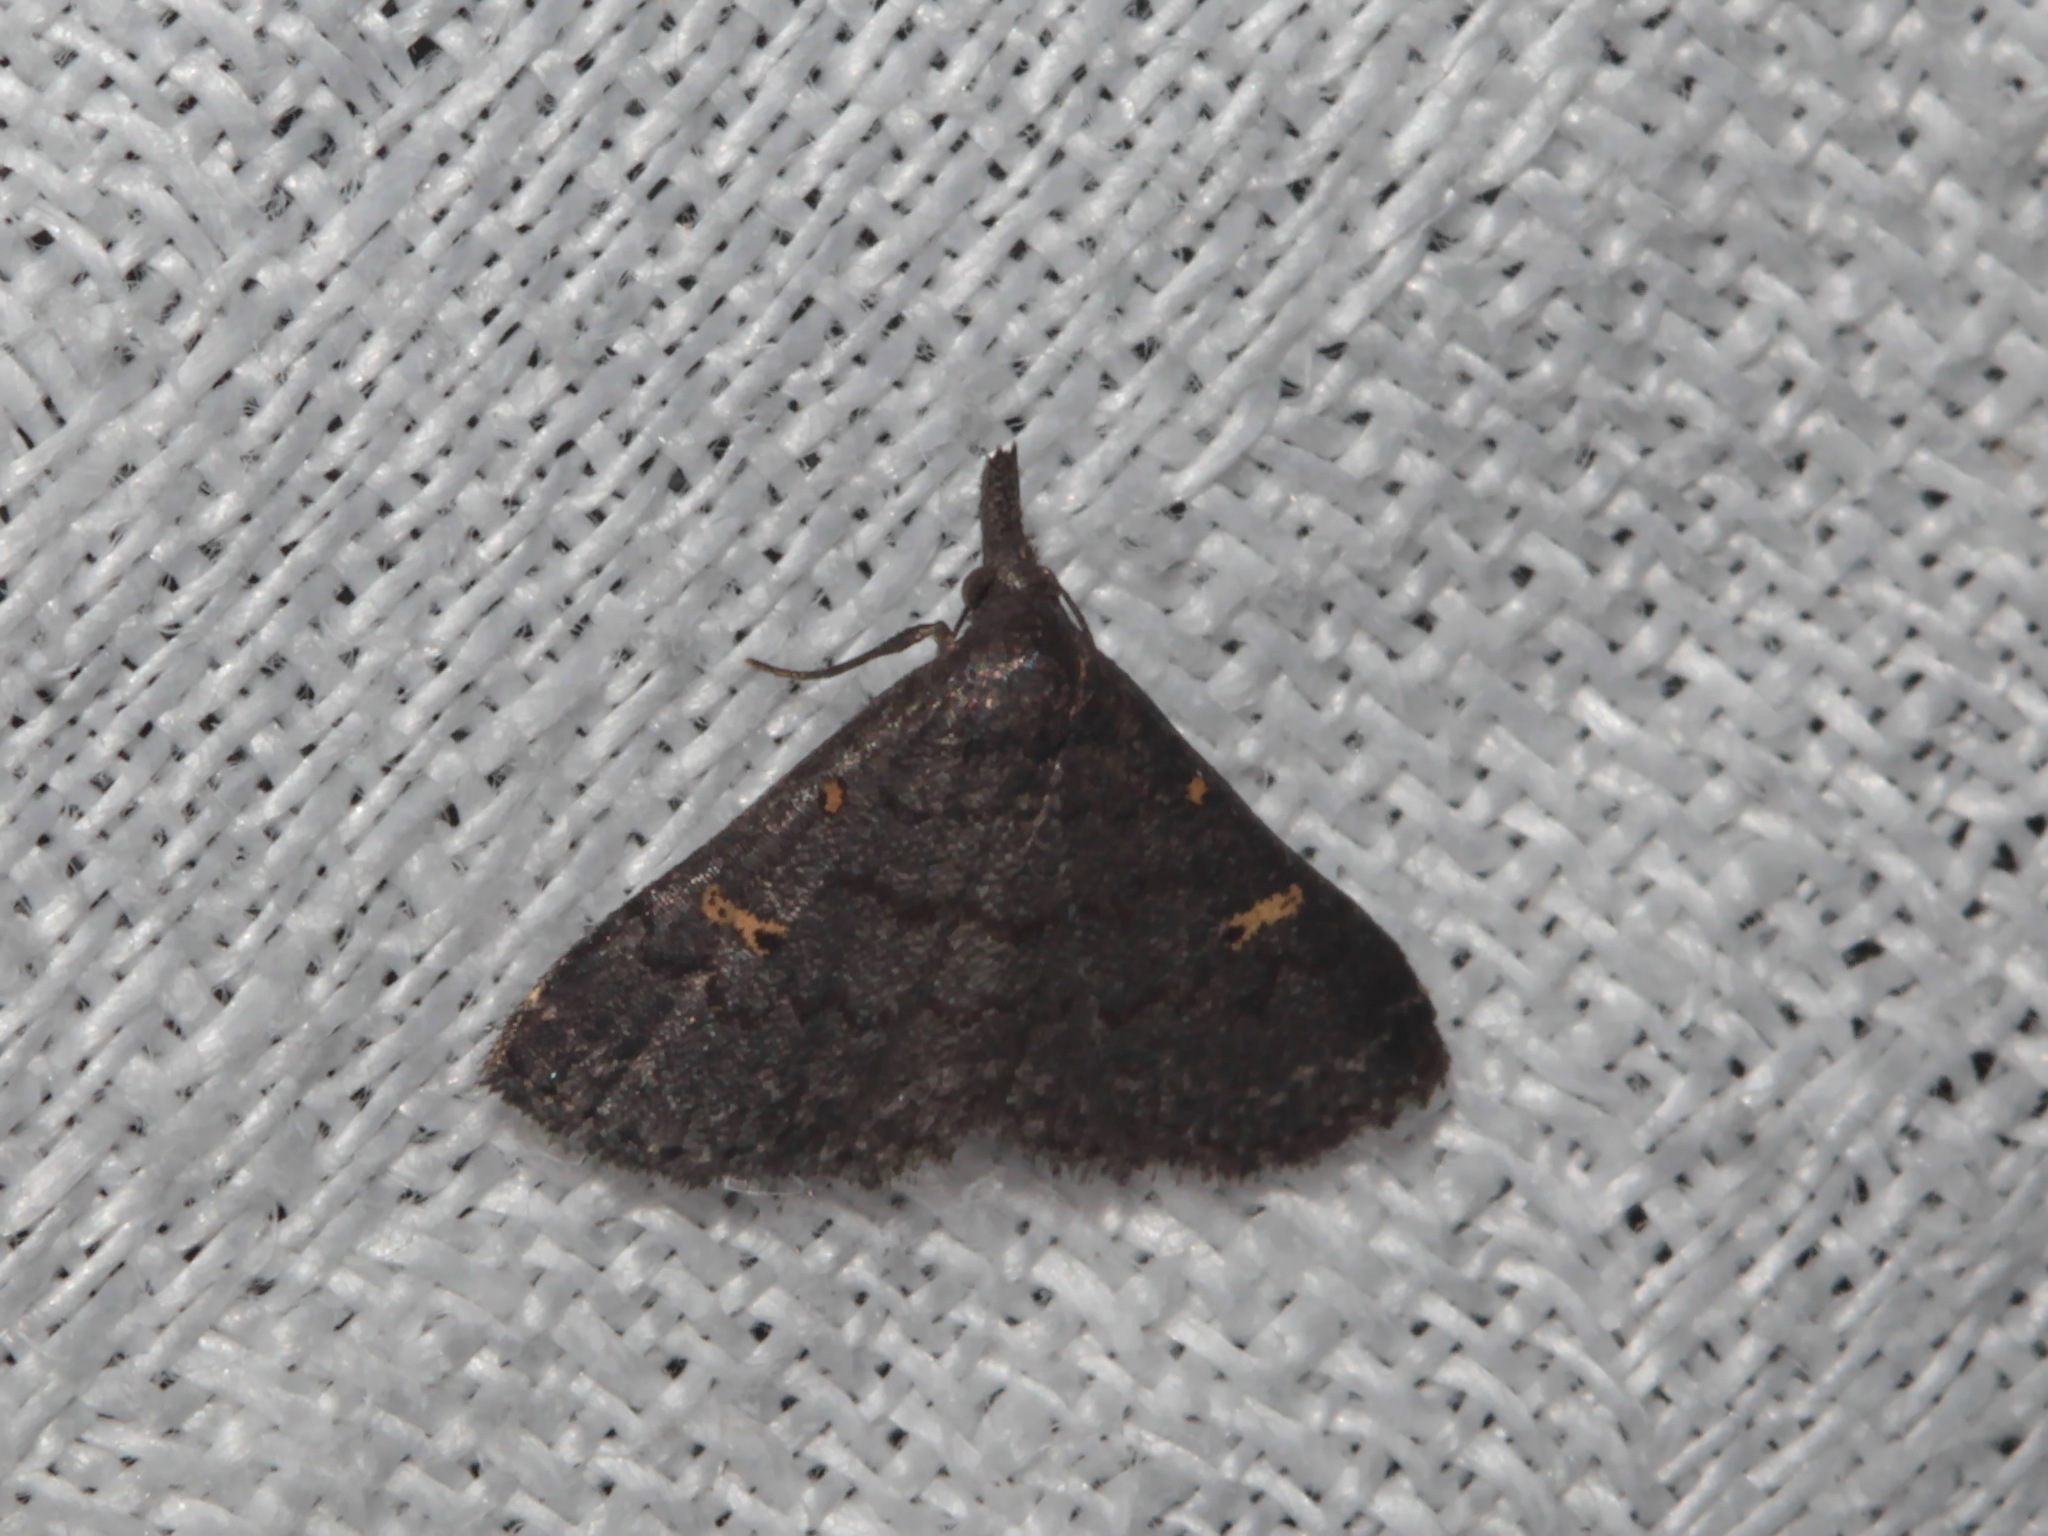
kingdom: Animalia
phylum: Arthropoda
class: Insecta
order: Lepidoptera
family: Erebidae
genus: Naarda
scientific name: Naarda ochreistigma
